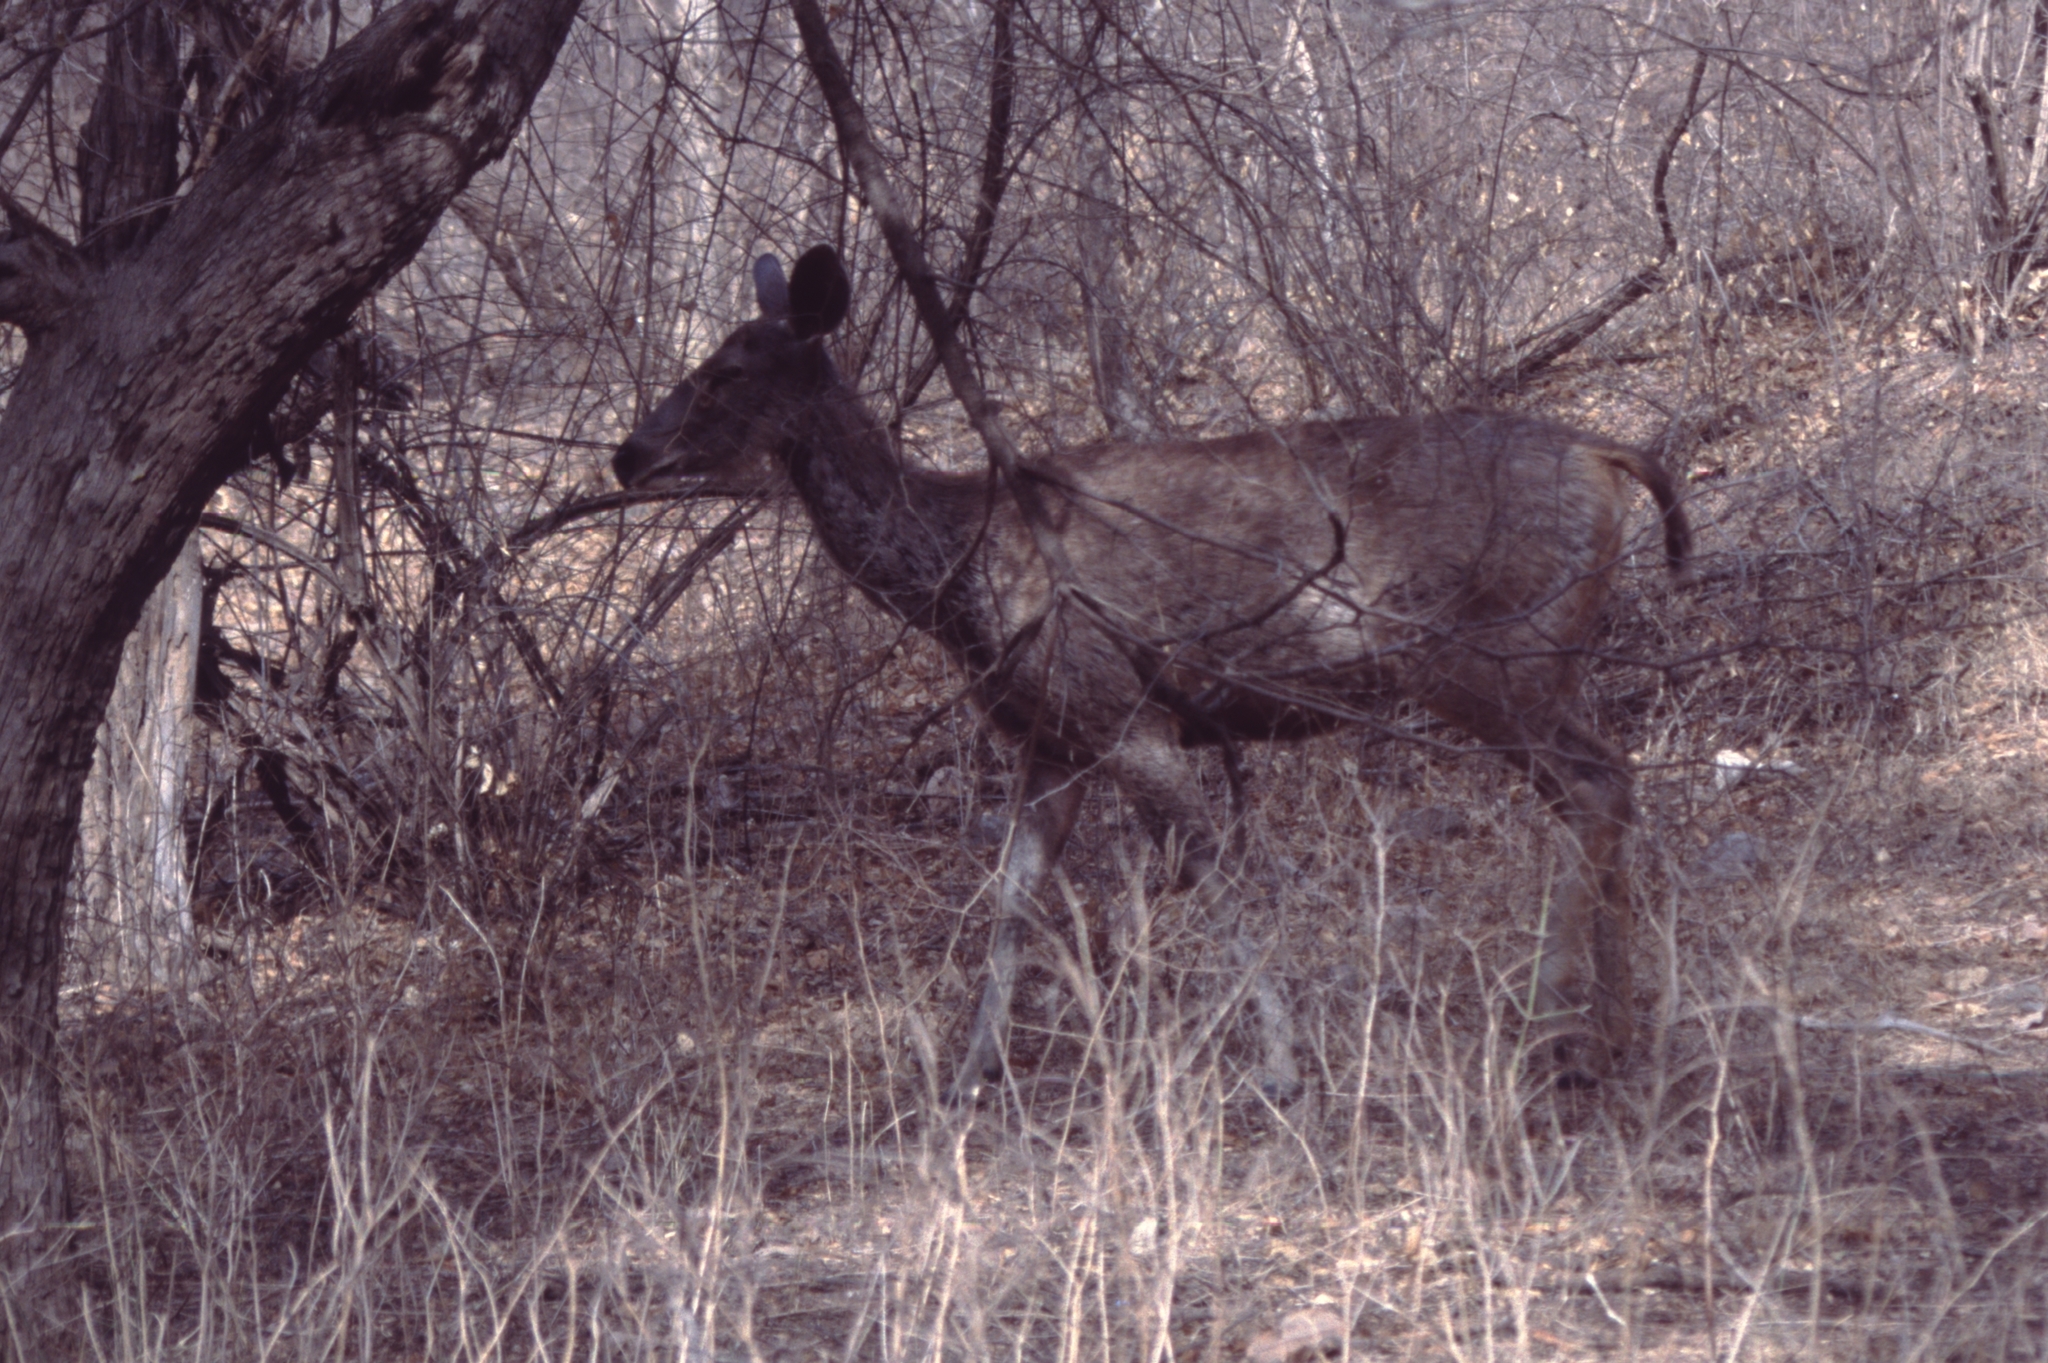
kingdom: Animalia
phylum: Chordata
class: Mammalia
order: Artiodactyla
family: Cervidae
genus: Rusa
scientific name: Rusa unicolor
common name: Sambar
